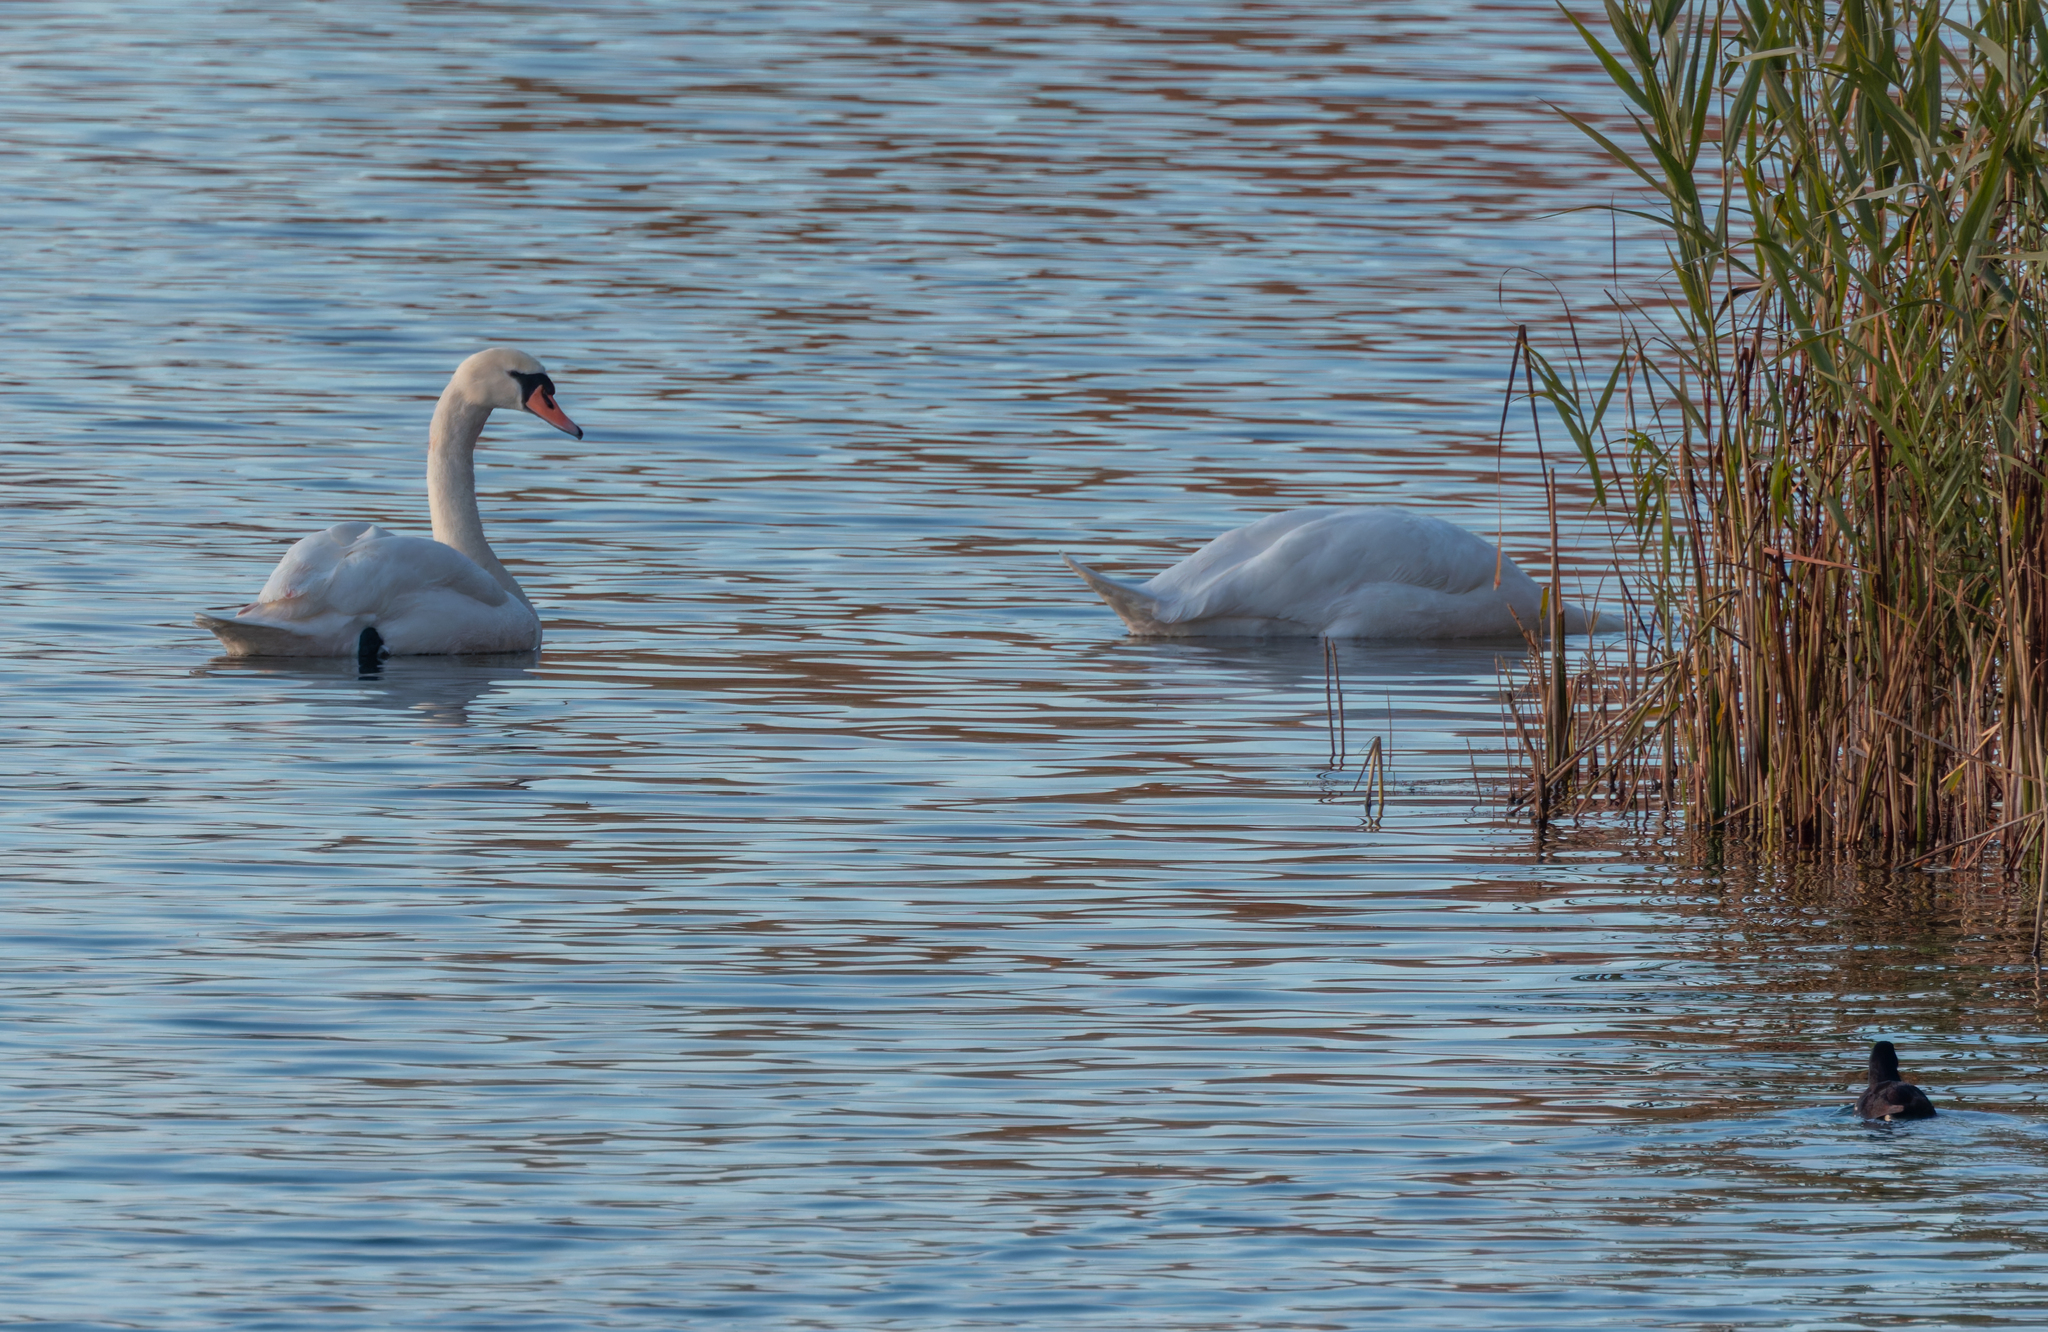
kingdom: Animalia
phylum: Chordata
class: Aves
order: Anseriformes
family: Anatidae
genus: Cygnus
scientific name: Cygnus olor
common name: Mute swan
